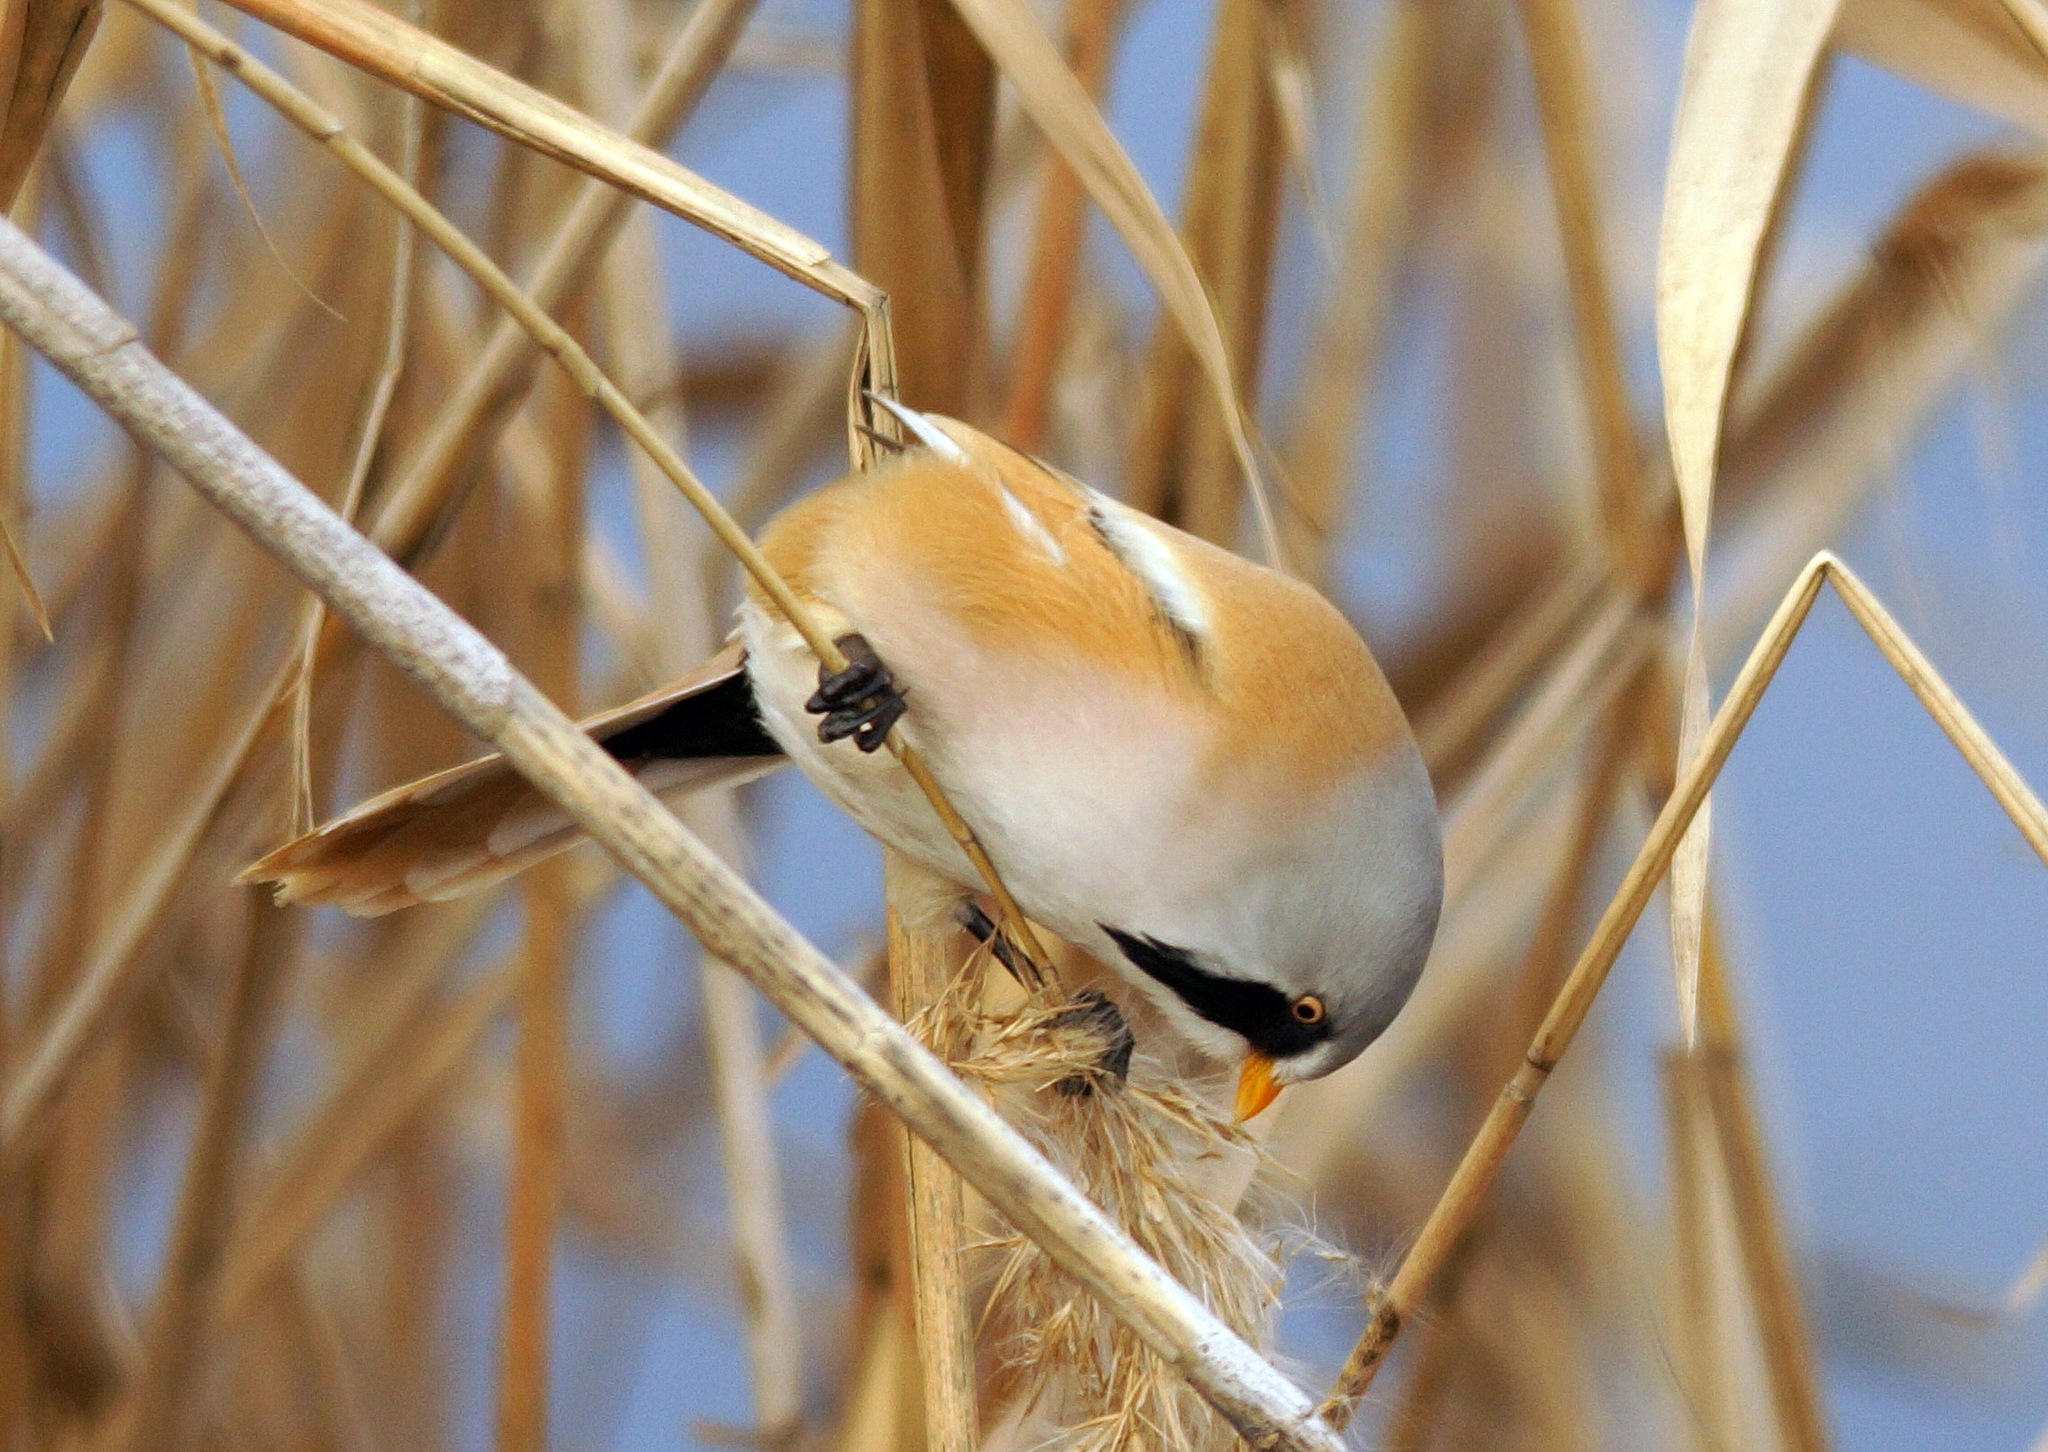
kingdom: Animalia
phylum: Chordata
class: Aves
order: Passeriformes
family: Panuridae
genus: Panurus
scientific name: Panurus biarmicus
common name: Bearded reedling
